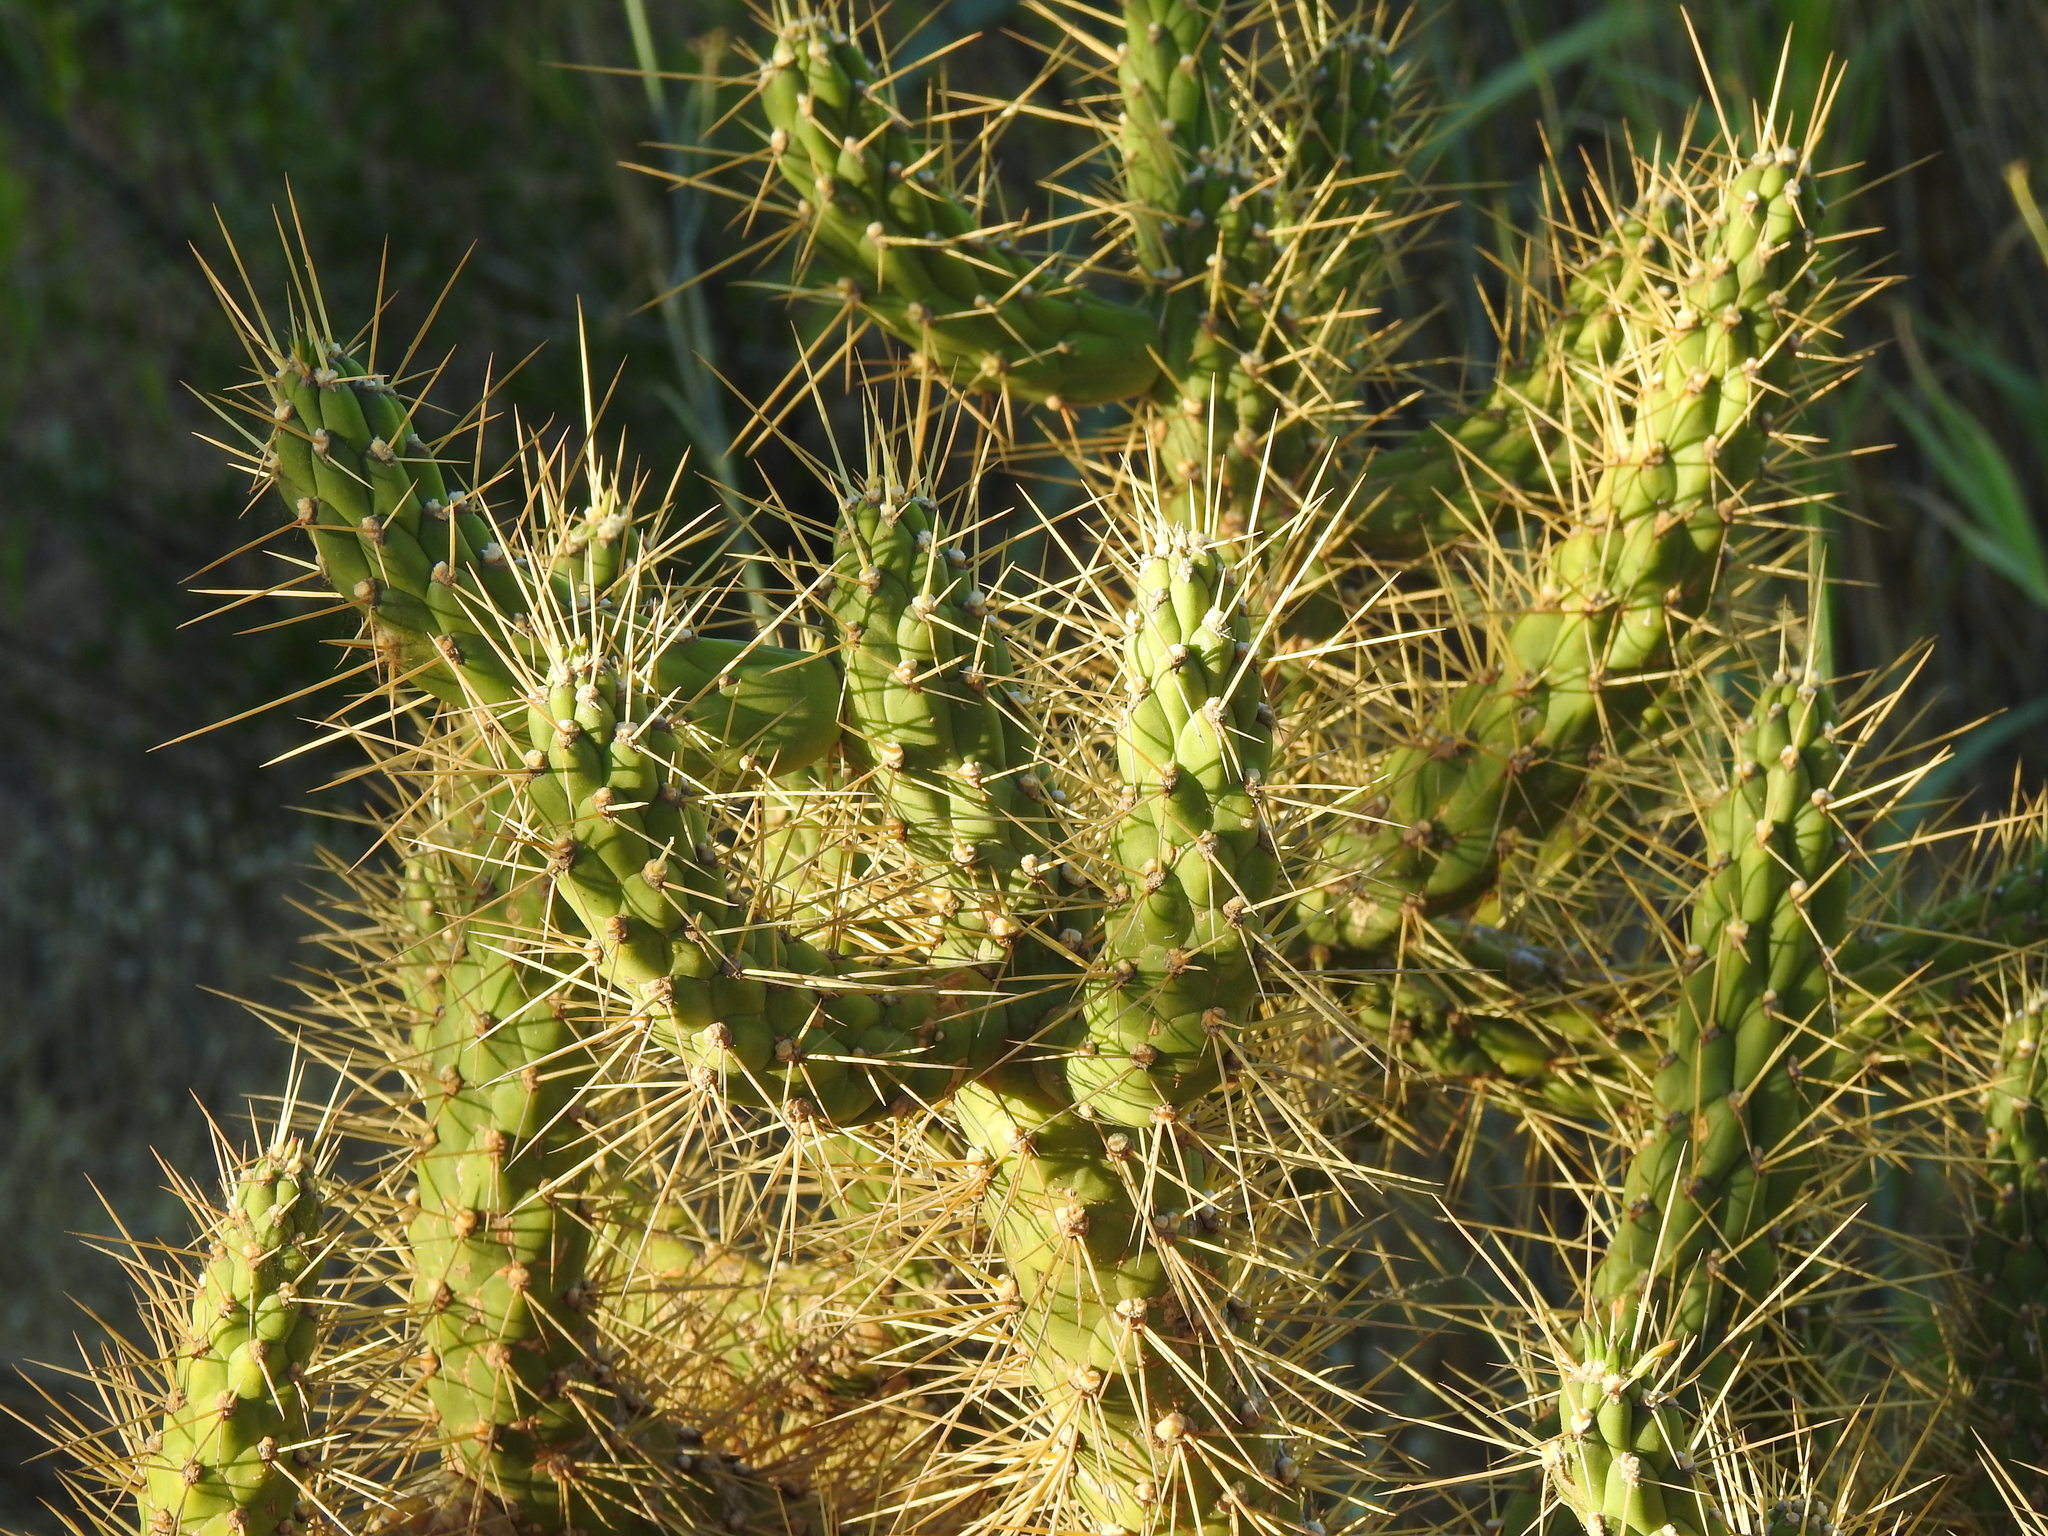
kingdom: Plantae
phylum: Tracheophyta
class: Magnoliopsida
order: Caryophyllales
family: Cactaceae
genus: Austrocylindropuntia
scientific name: Austrocylindropuntia subulata
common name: Eve's needle cactus
